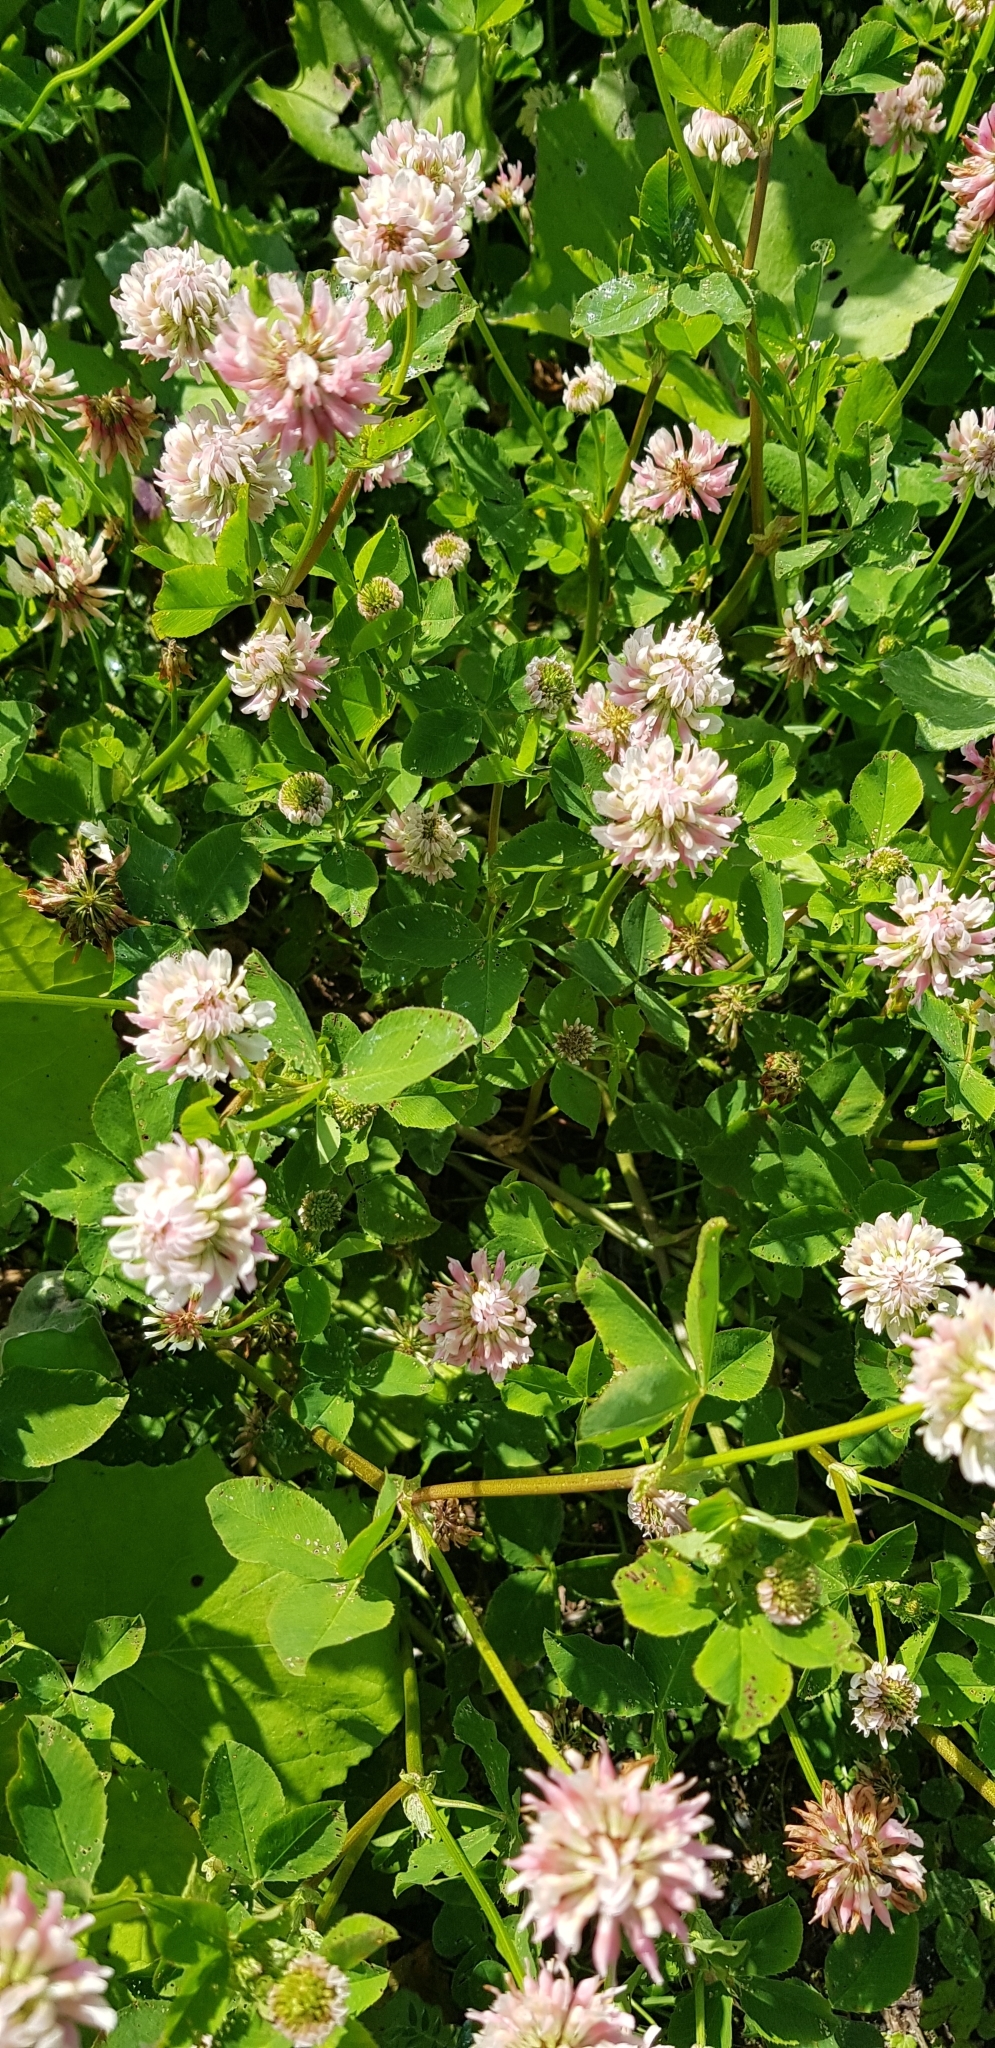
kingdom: Plantae
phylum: Tracheophyta
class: Magnoliopsida
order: Fabales
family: Fabaceae
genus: Trifolium
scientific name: Trifolium repens
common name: White clover
